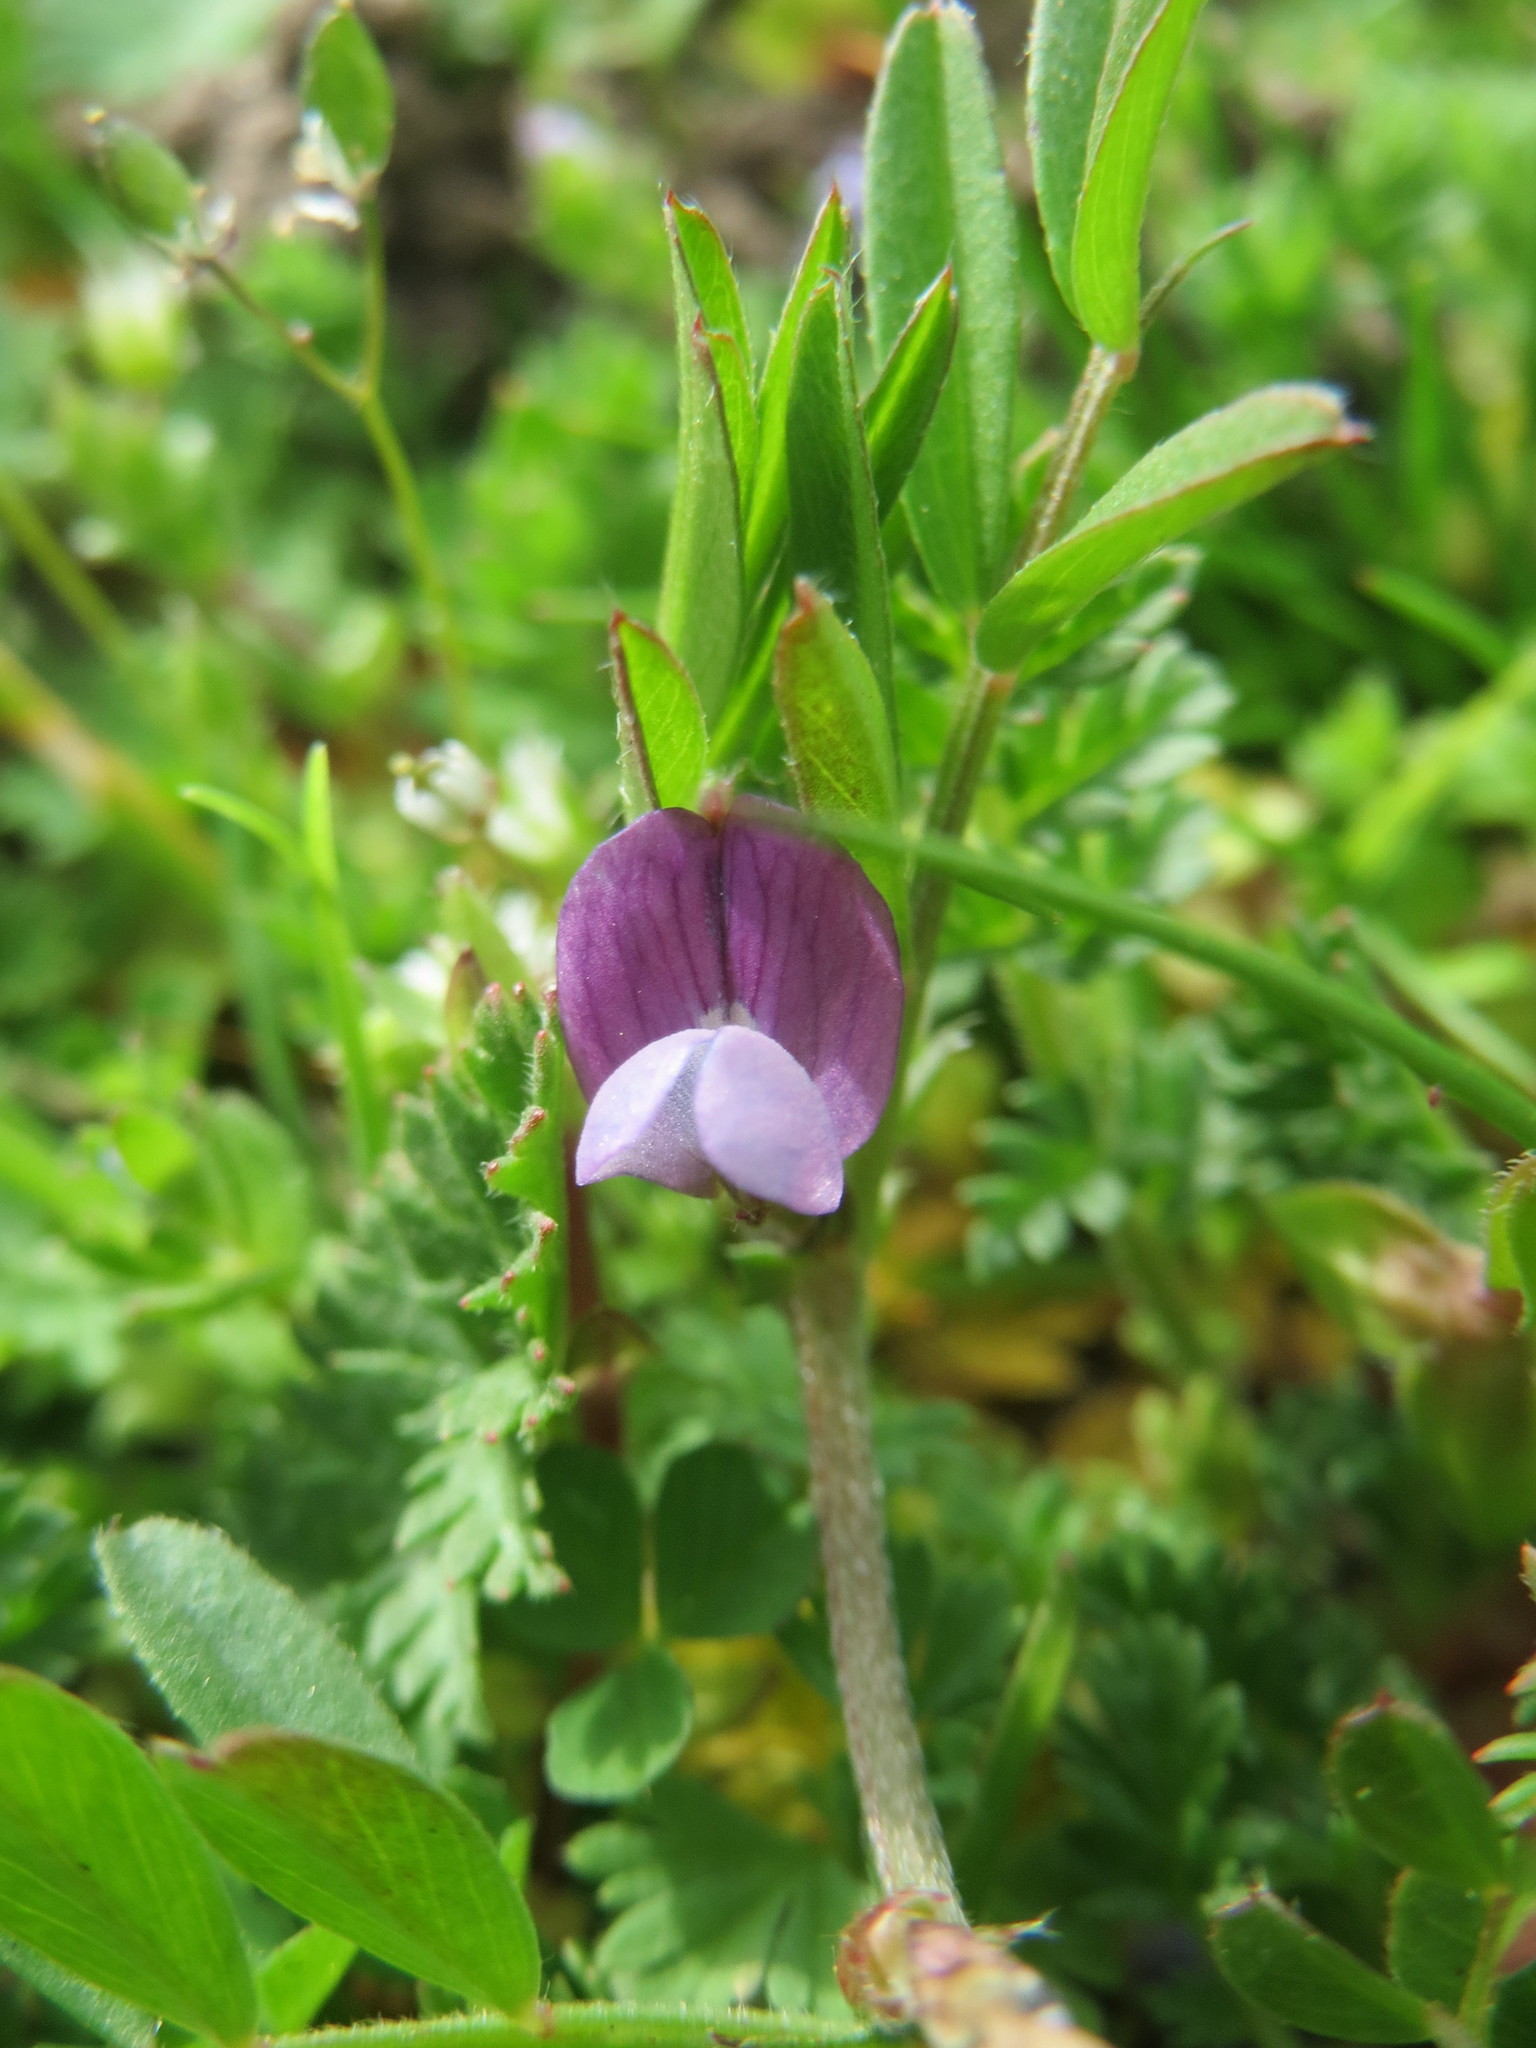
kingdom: Plantae
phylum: Tracheophyta
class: Magnoliopsida
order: Fabales
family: Fabaceae
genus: Vicia
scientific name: Vicia lathyroides
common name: Spring vetch
